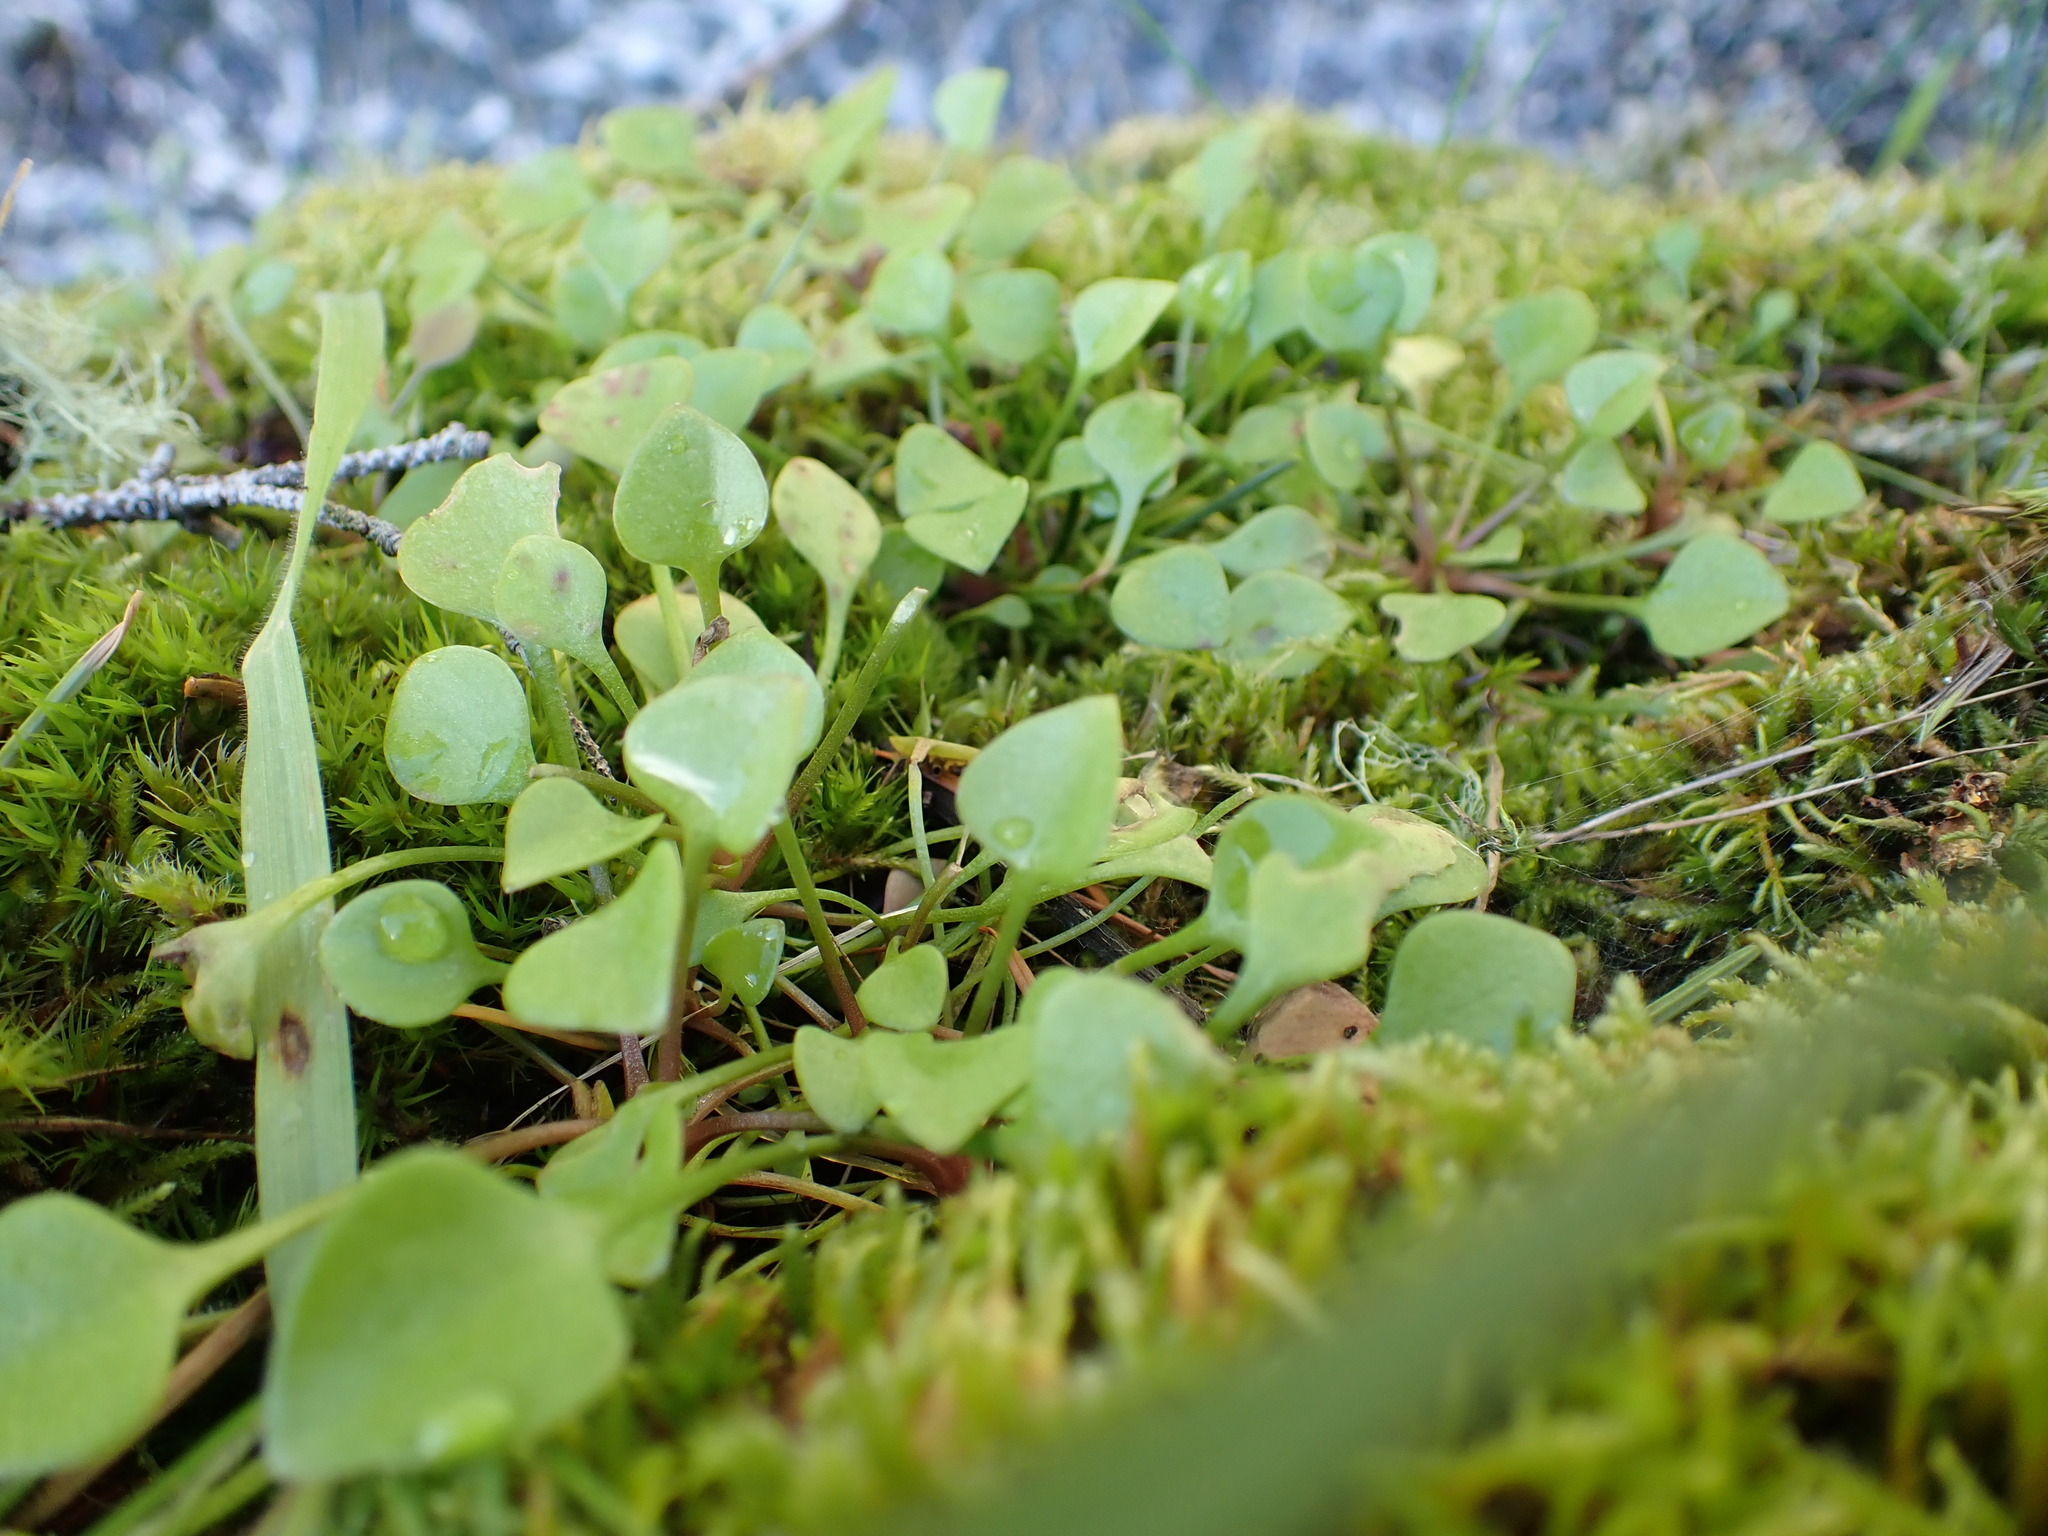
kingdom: Plantae
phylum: Tracheophyta
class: Magnoliopsida
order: Caryophyllales
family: Montiaceae
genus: Claytonia
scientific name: Claytonia perfoliata
